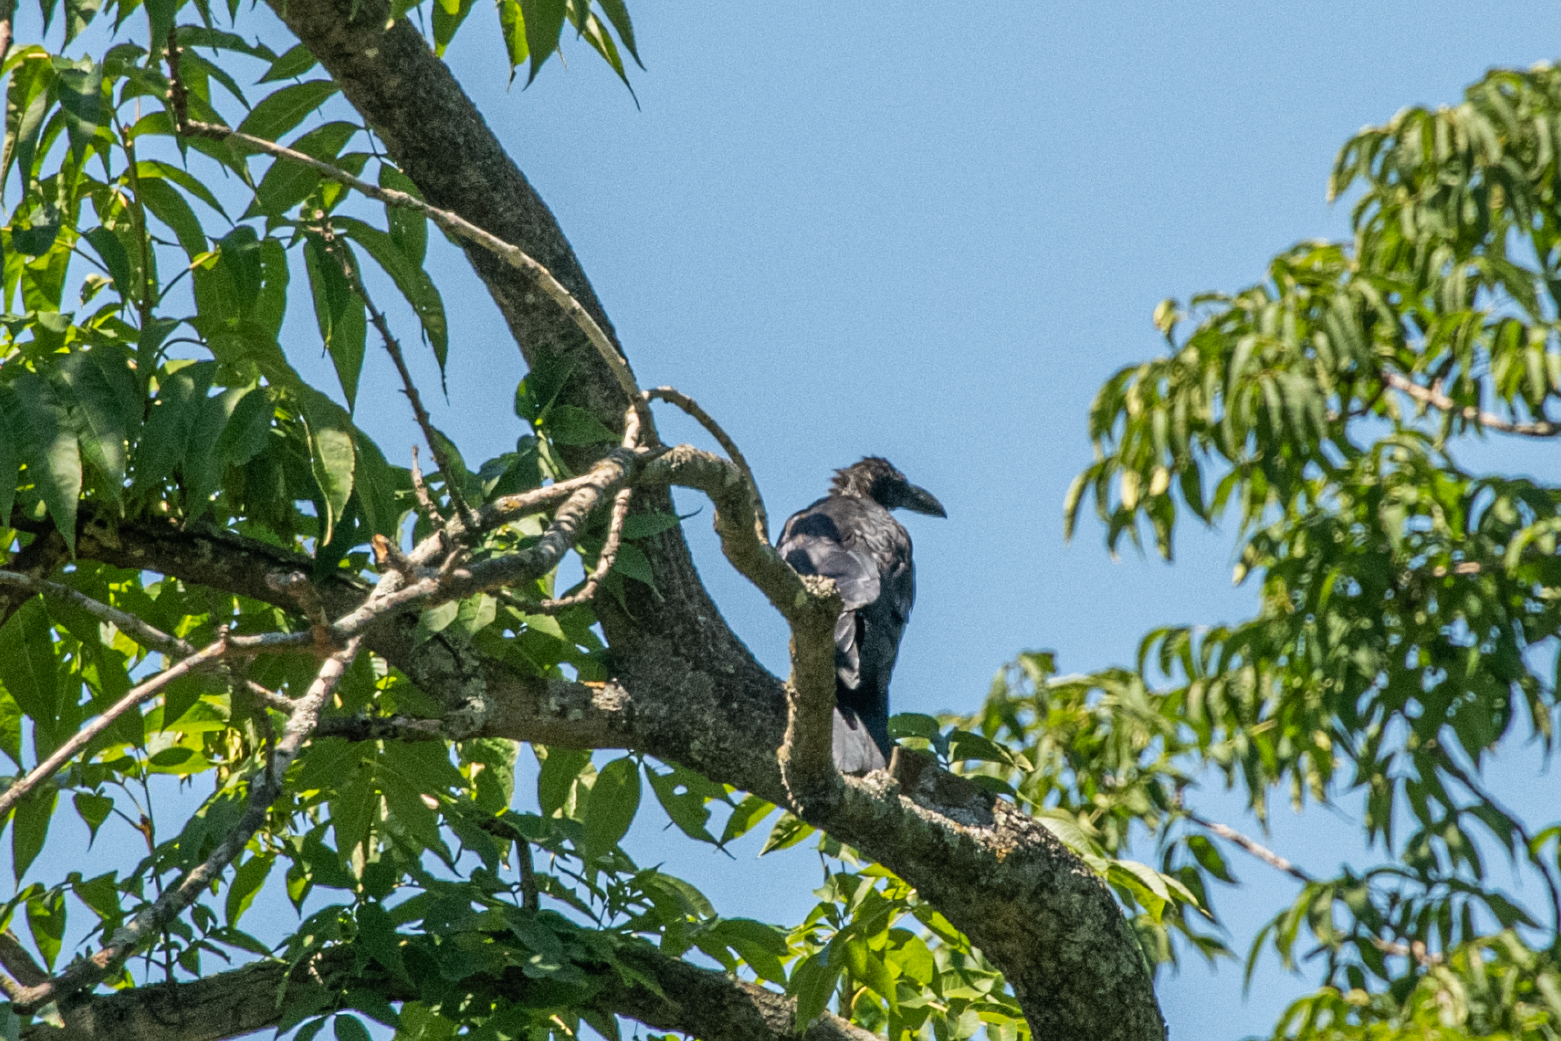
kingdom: Animalia
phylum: Chordata
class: Aves
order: Passeriformes
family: Corvidae
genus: Corvus
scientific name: Corvus macrorhynchos
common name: Large-billed crow
